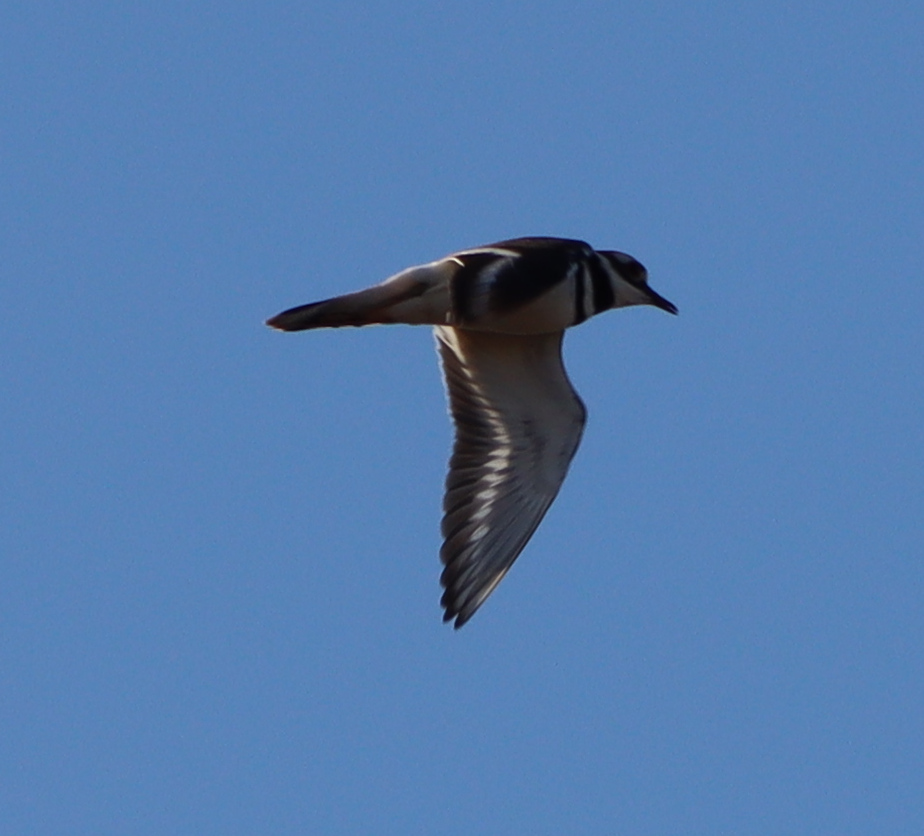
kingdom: Animalia
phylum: Chordata
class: Aves
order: Charadriiformes
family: Charadriidae
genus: Charadrius
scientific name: Charadrius vociferus
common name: Killdeer
